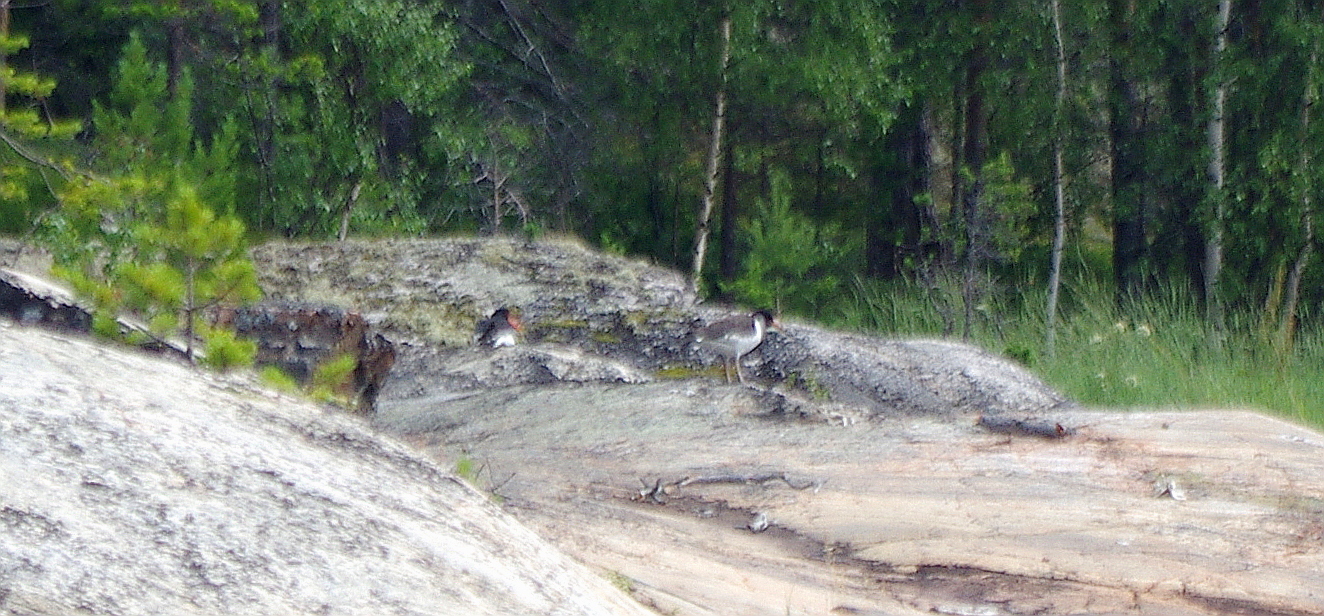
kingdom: Animalia
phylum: Chordata
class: Aves
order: Charadriiformes
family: Haematopodidae
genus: Haematopus
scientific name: Haematopus ostralegus
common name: Eurasian oystercatcher
